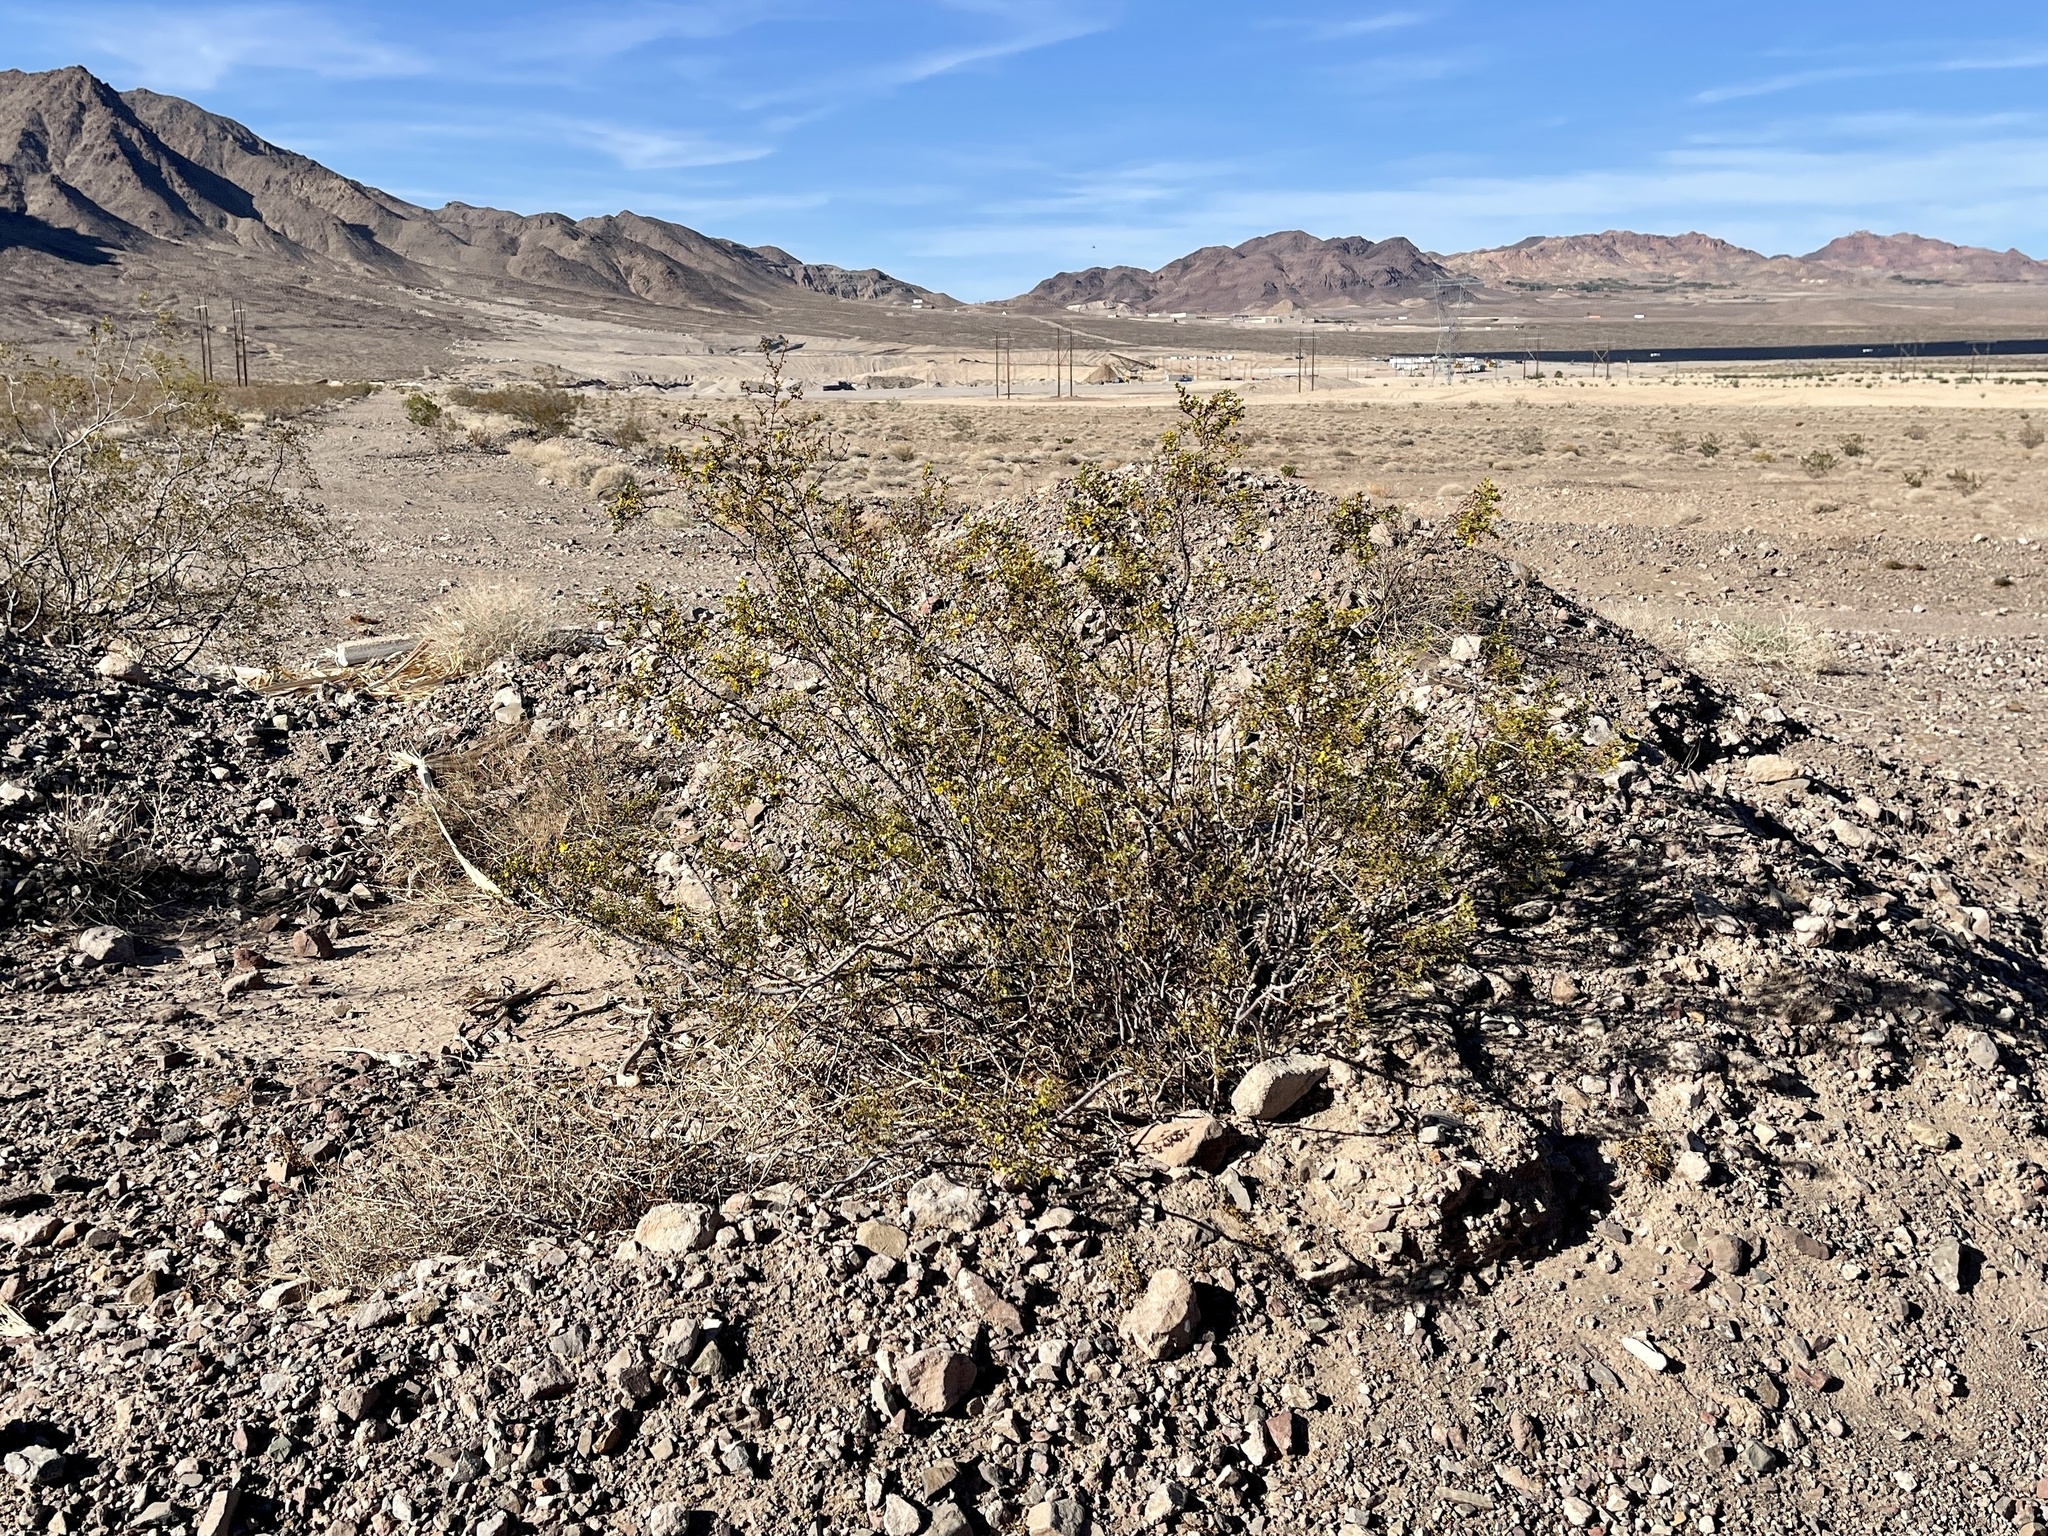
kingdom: Plantae
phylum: Tracheophyta
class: Magnoliopsida
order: Zygophyllales
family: Zygophyllaceae
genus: Larrea
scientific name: Larrea tridentata
